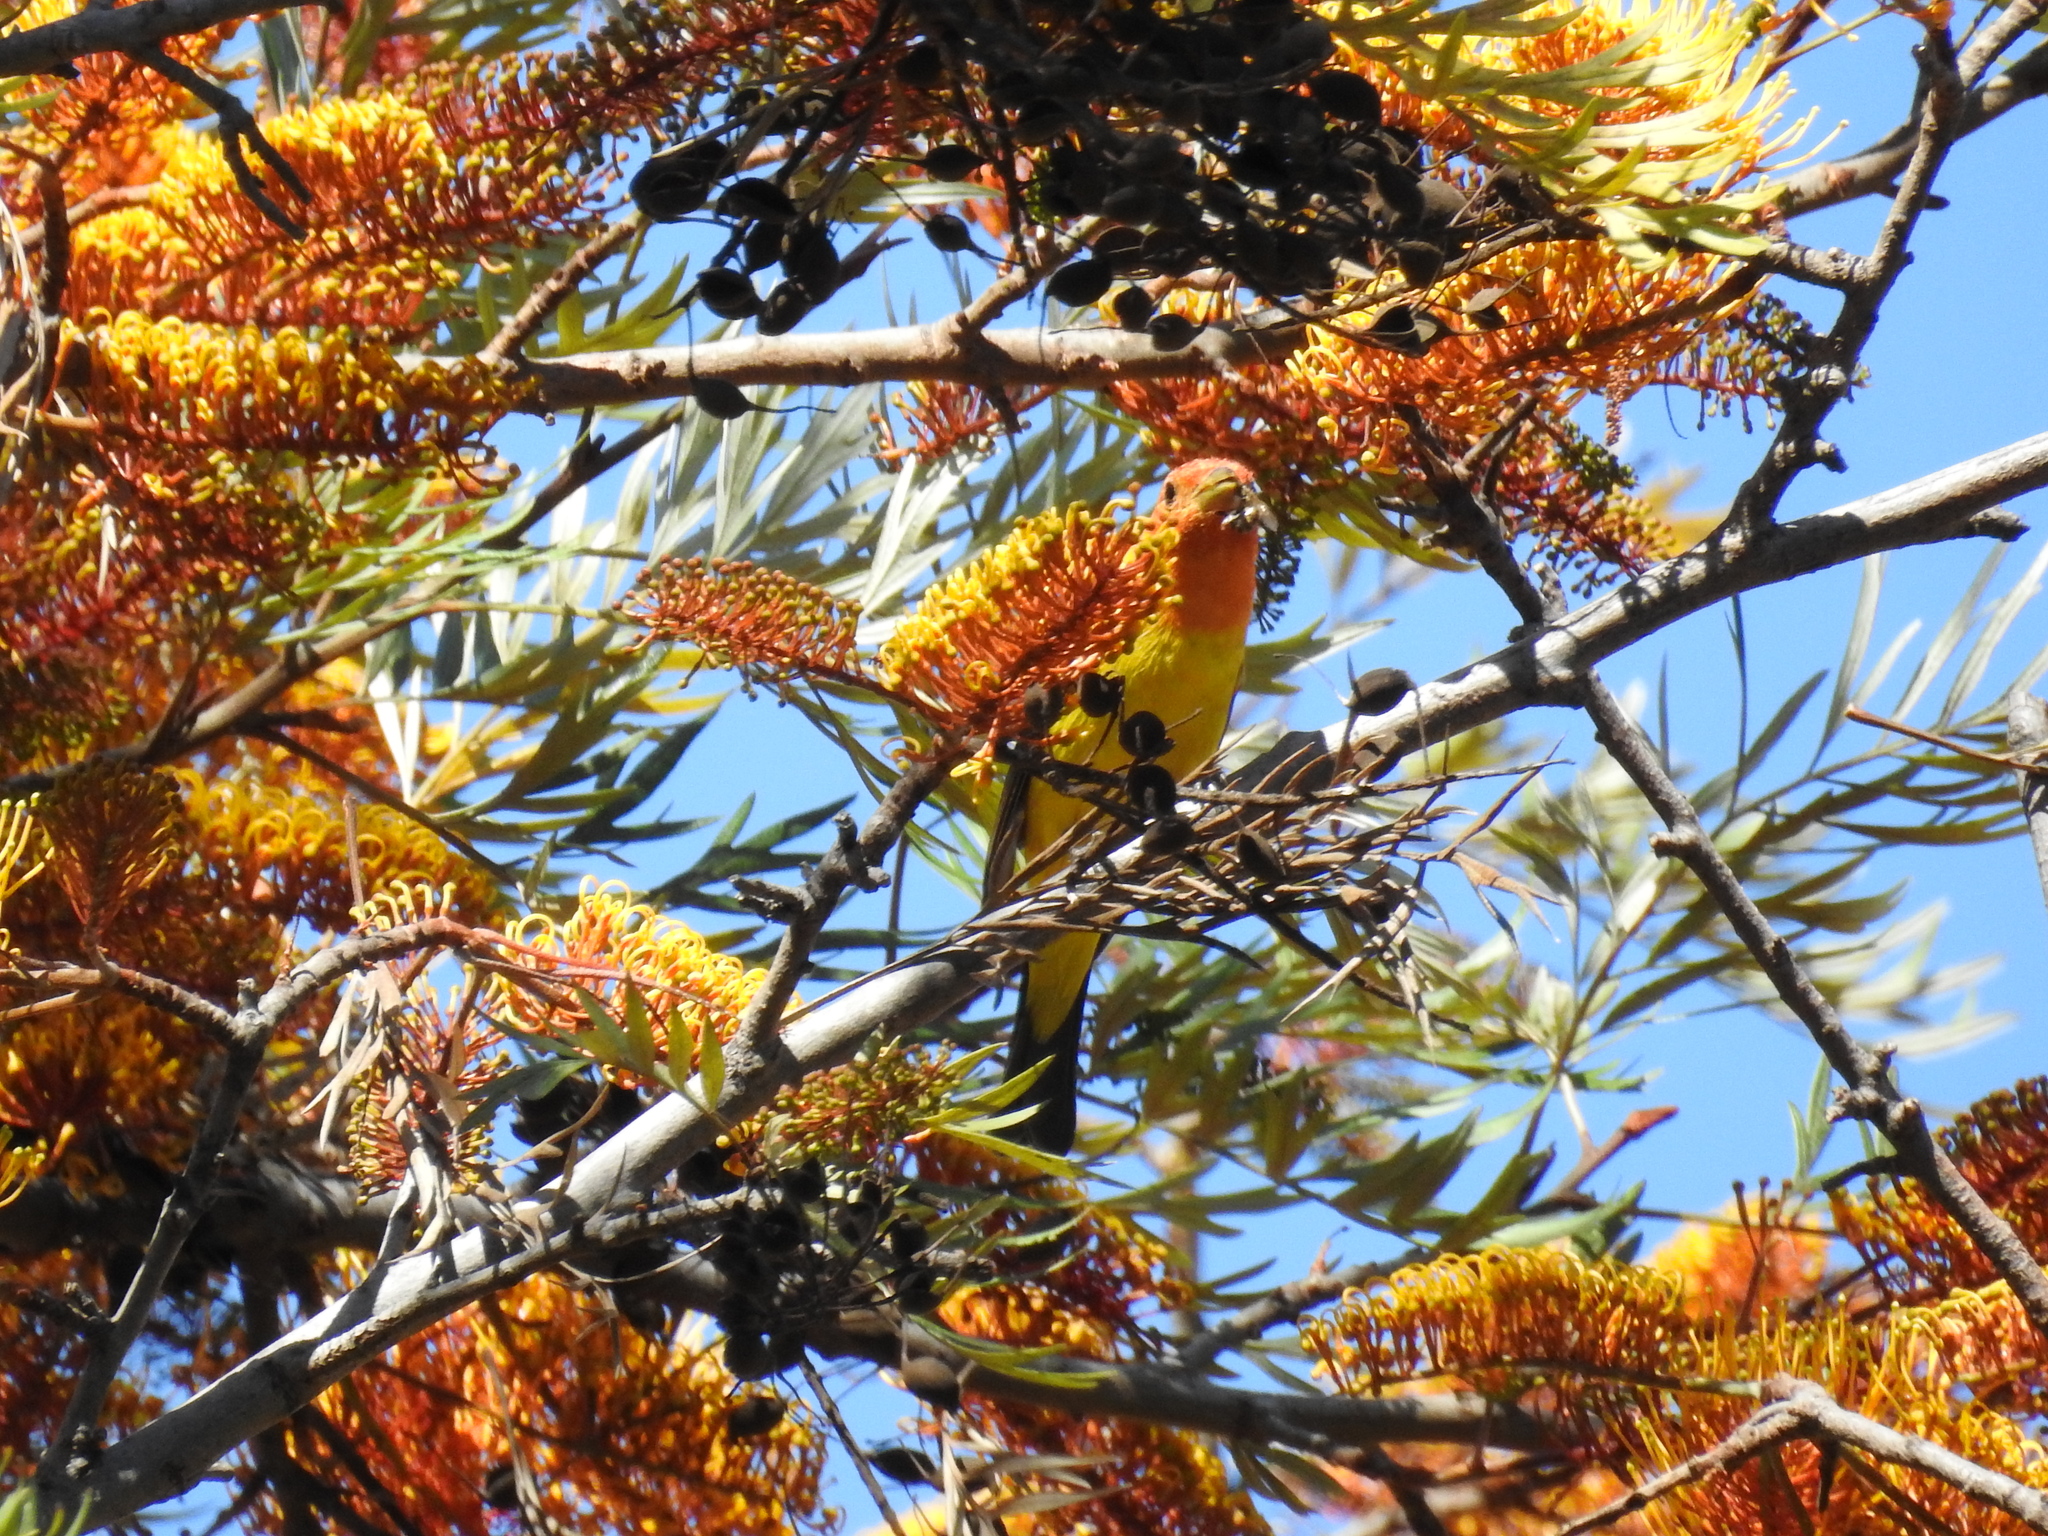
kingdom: Animalia
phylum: Chordata
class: Aves
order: Passeriformes
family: Cardinalidae
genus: Piranga
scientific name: Piranga ludoviciana
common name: Western tanager
